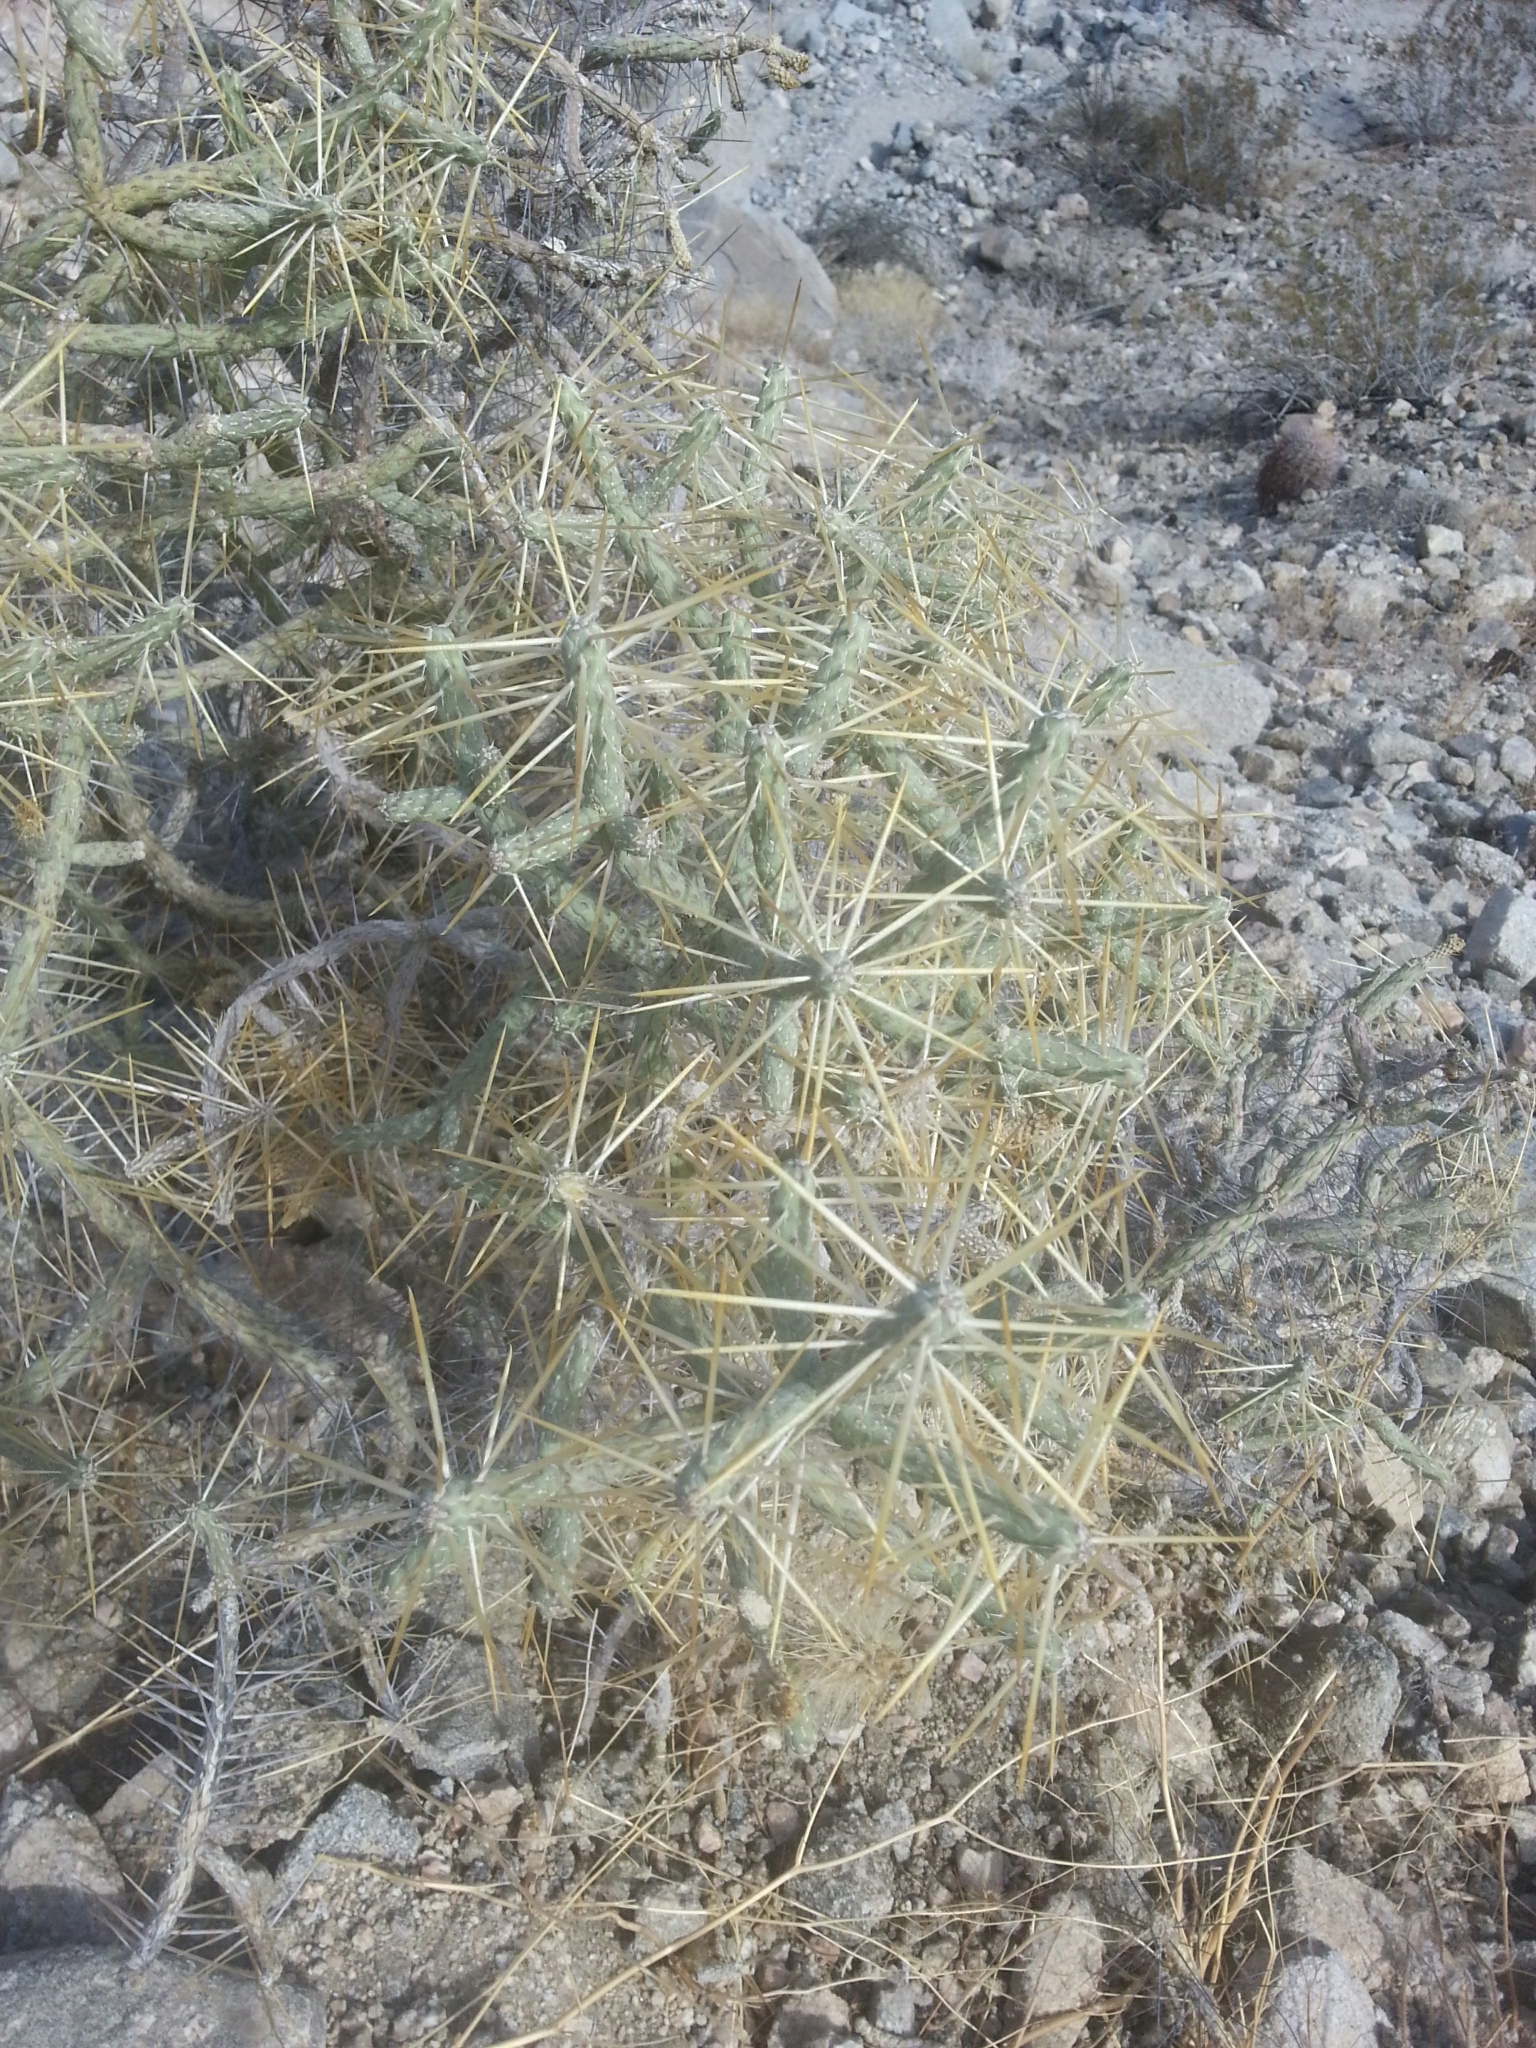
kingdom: Plantae
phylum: Tracheophyta
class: Magnoliopsida
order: Caryophyllales
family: Cactaceae
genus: Cylindropuntia
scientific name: Cylindropuntia ramosissima
